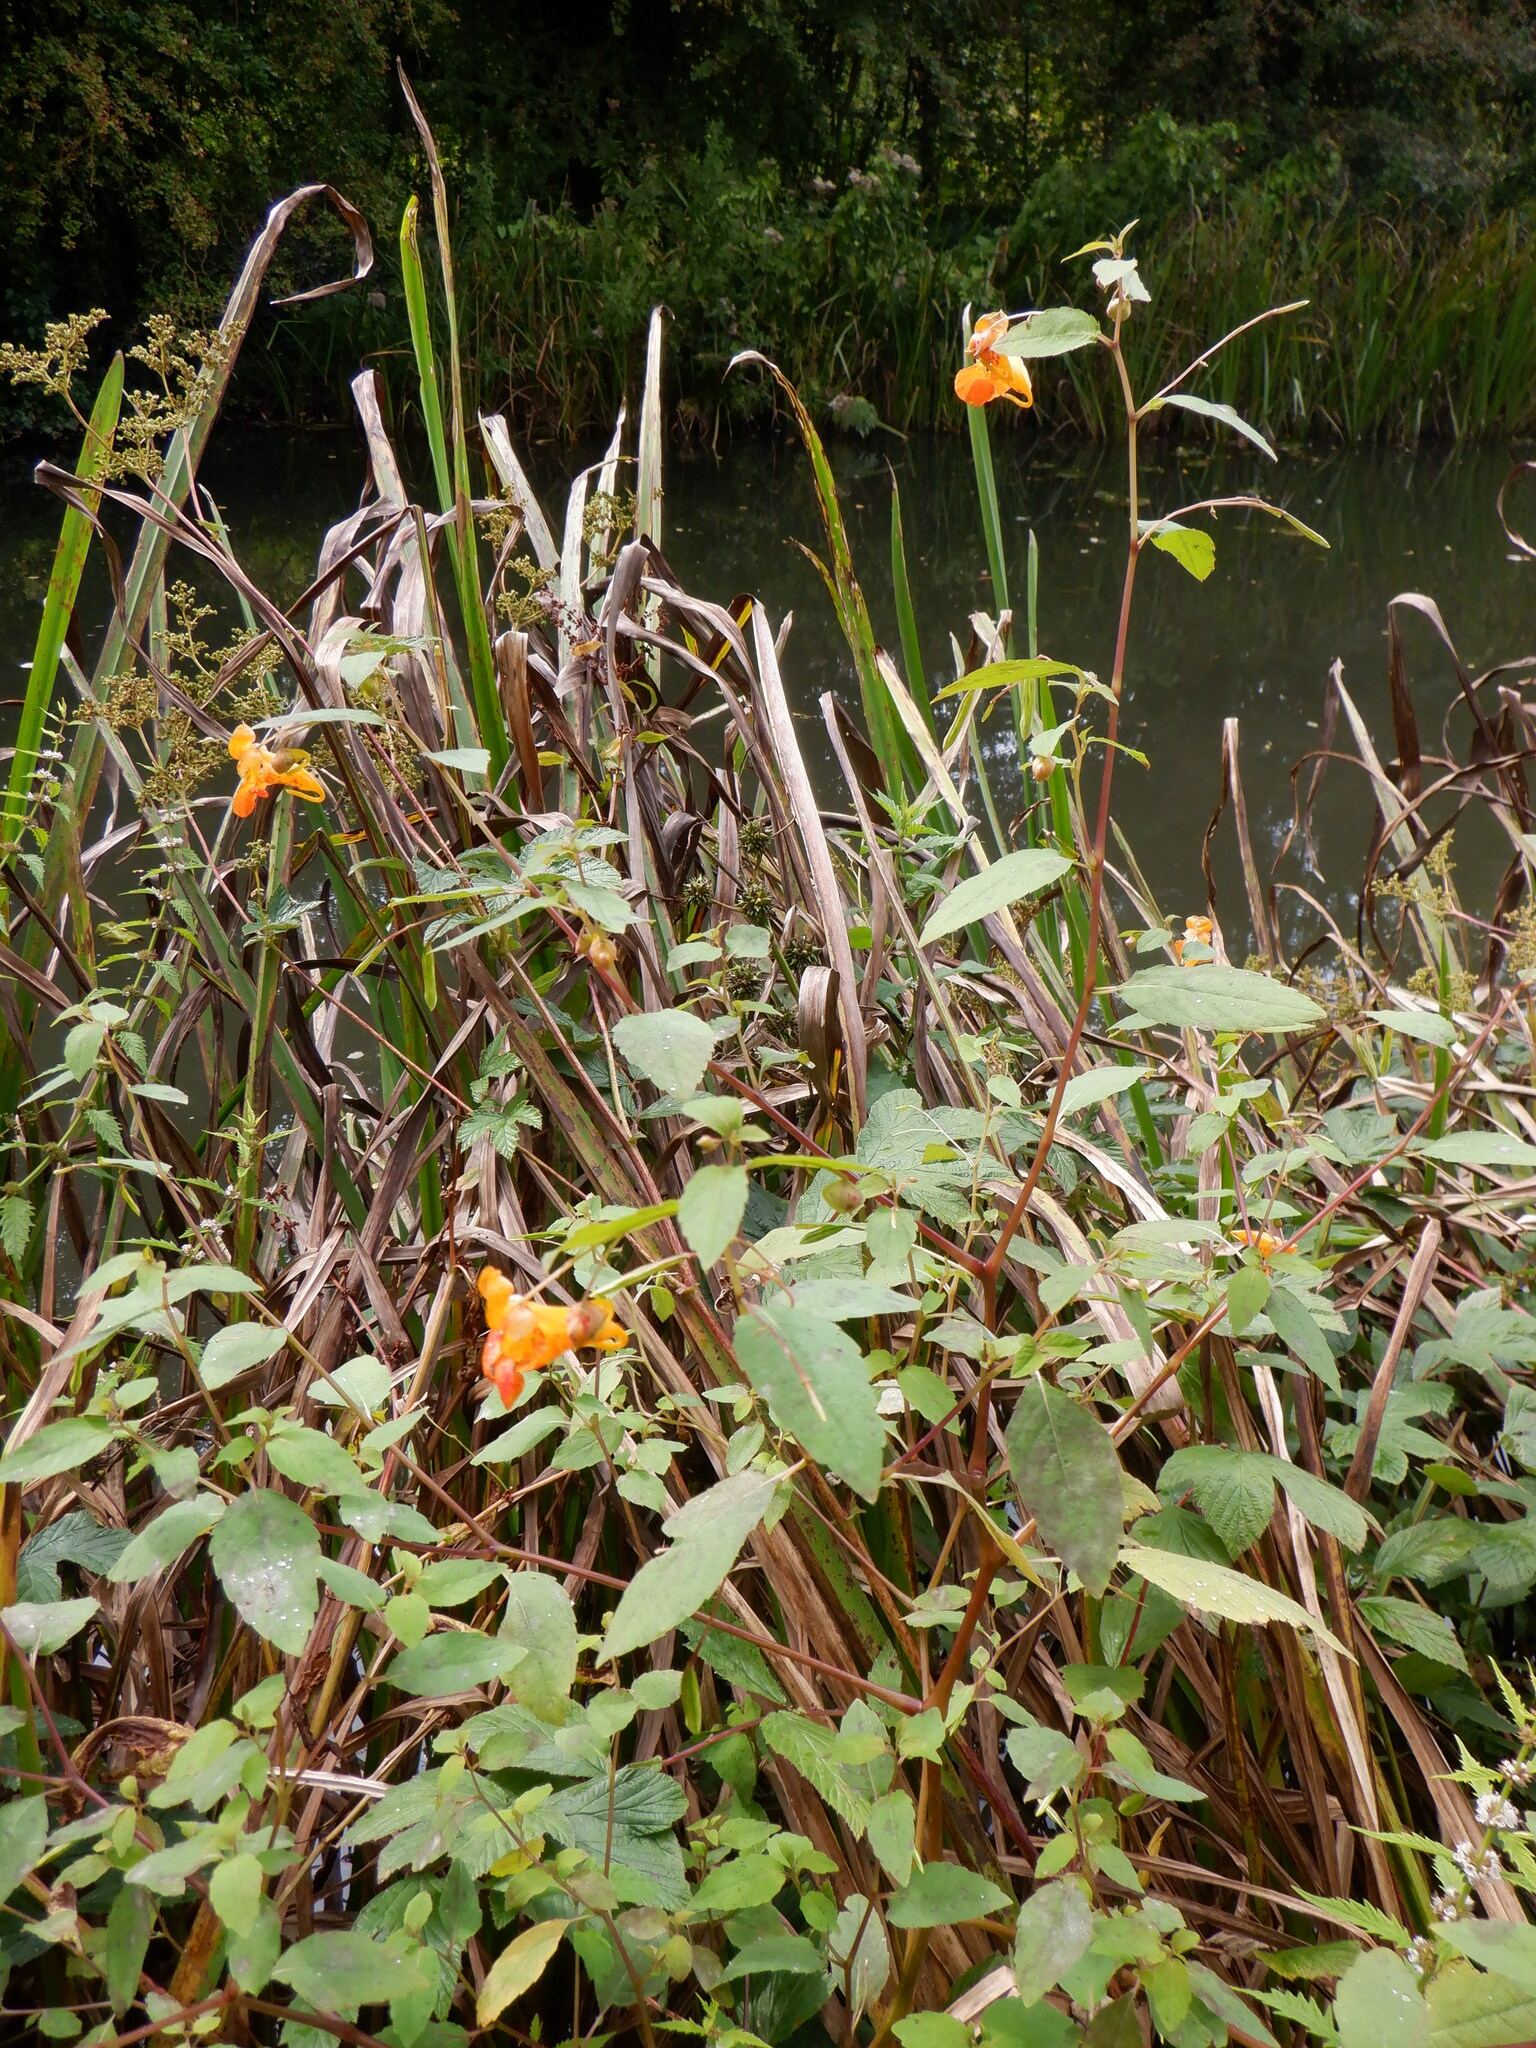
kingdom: Plantae
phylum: Tracheophyta
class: Magnoliopsida
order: Ericales
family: Balsaminaceae
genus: Impatiens
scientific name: Impatiens capensis
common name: Orange balsam
